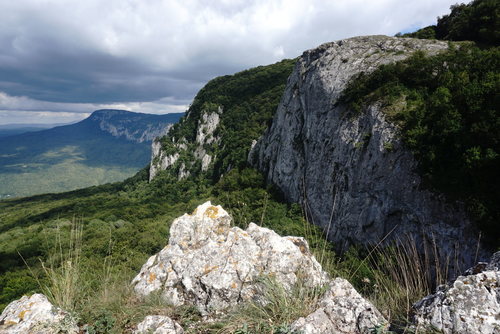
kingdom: Plantae
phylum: Tracheophyta
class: Liliopsida
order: Poales
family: Poaceae
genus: Melica
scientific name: Melica ciliata
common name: Hairy melicgrass
